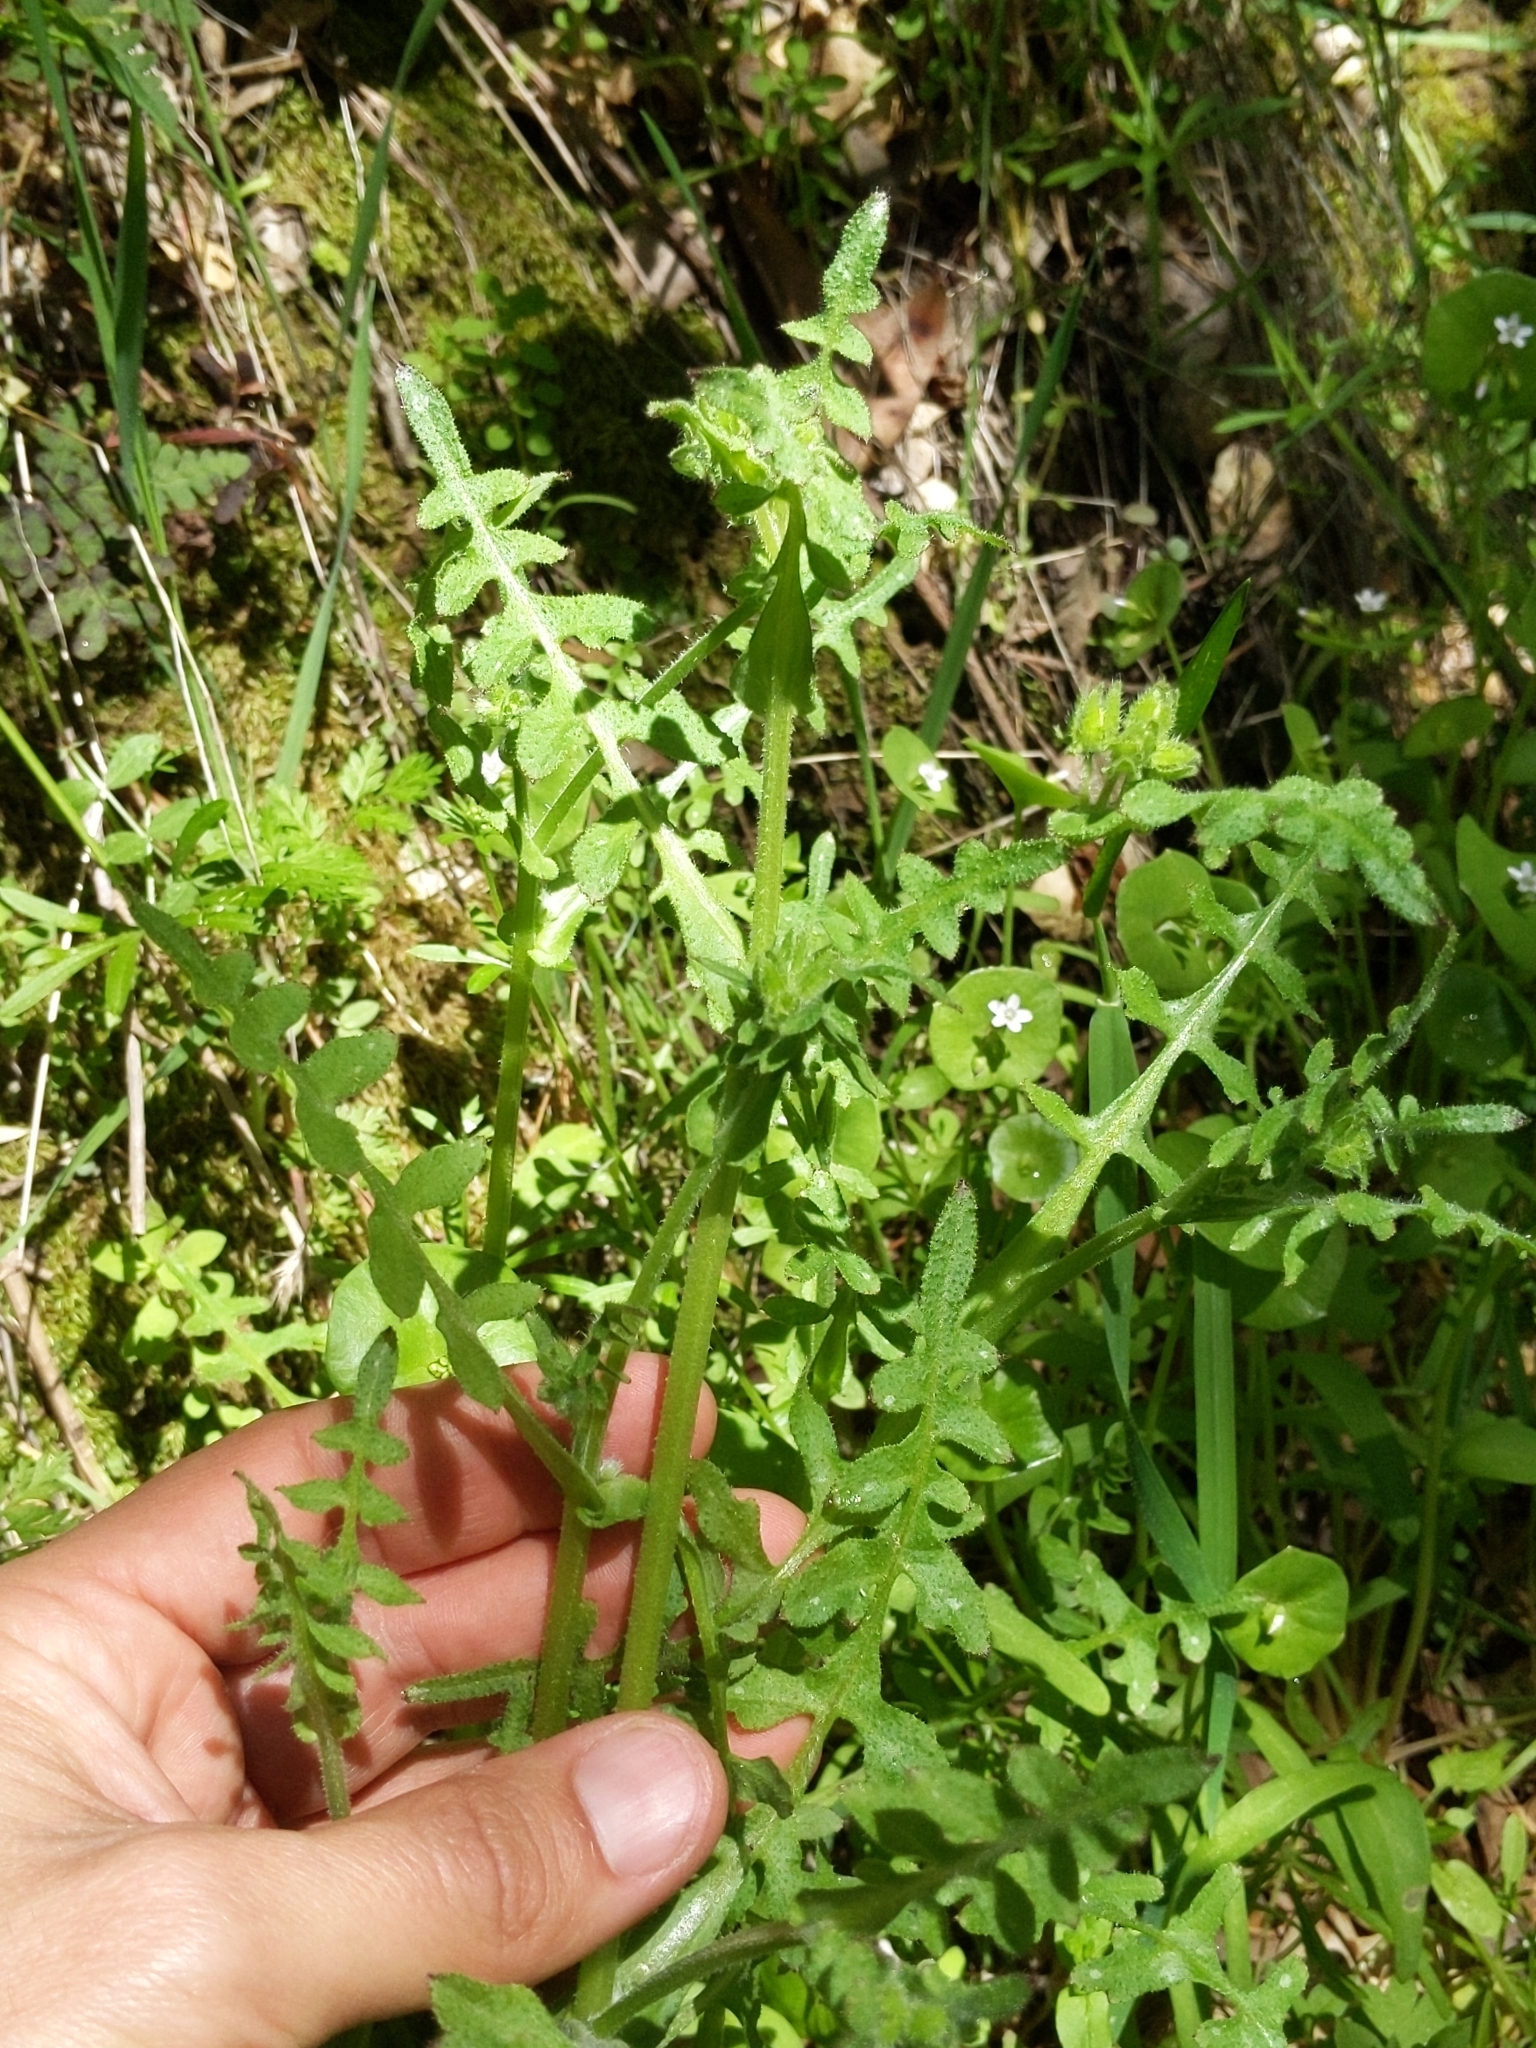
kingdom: Plantae
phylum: Tracheophyta
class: Magnoliopsida
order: Boraginales
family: Hydrophyllaceae
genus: Pholistoma
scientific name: Pholistoma auritum
